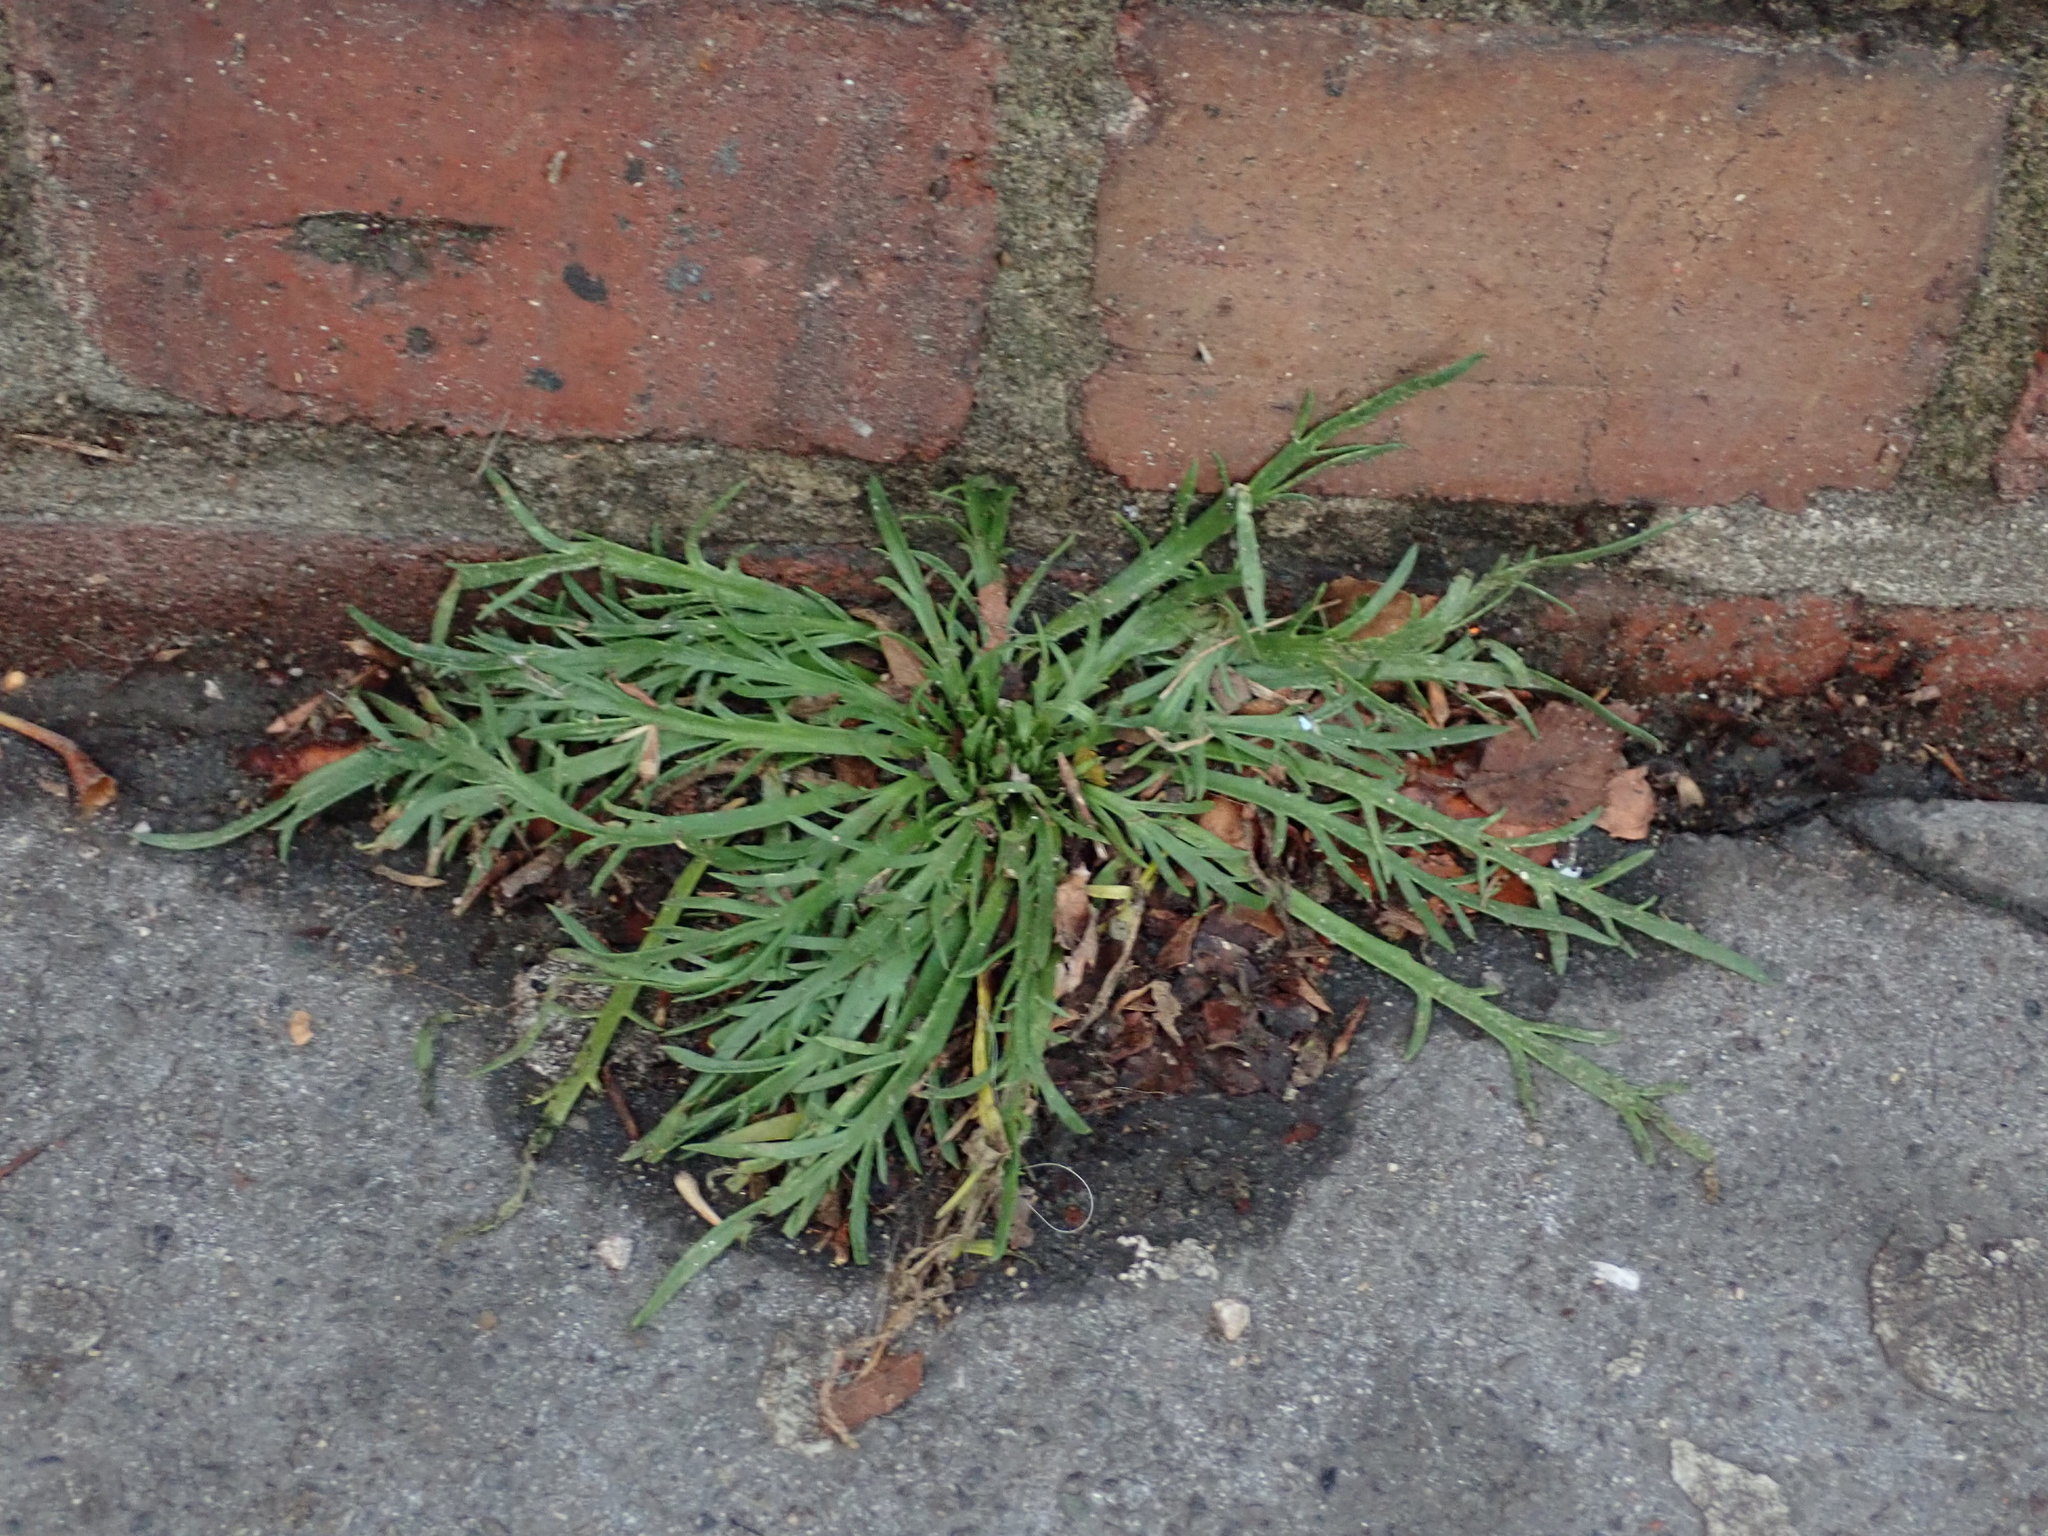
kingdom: Plantae
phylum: Tracheophyta
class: Magnoliopsida
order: Lamiales
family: Plantaginaceae
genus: Plantago
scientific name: Plantago coronopus
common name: Buck's-horn plantain
